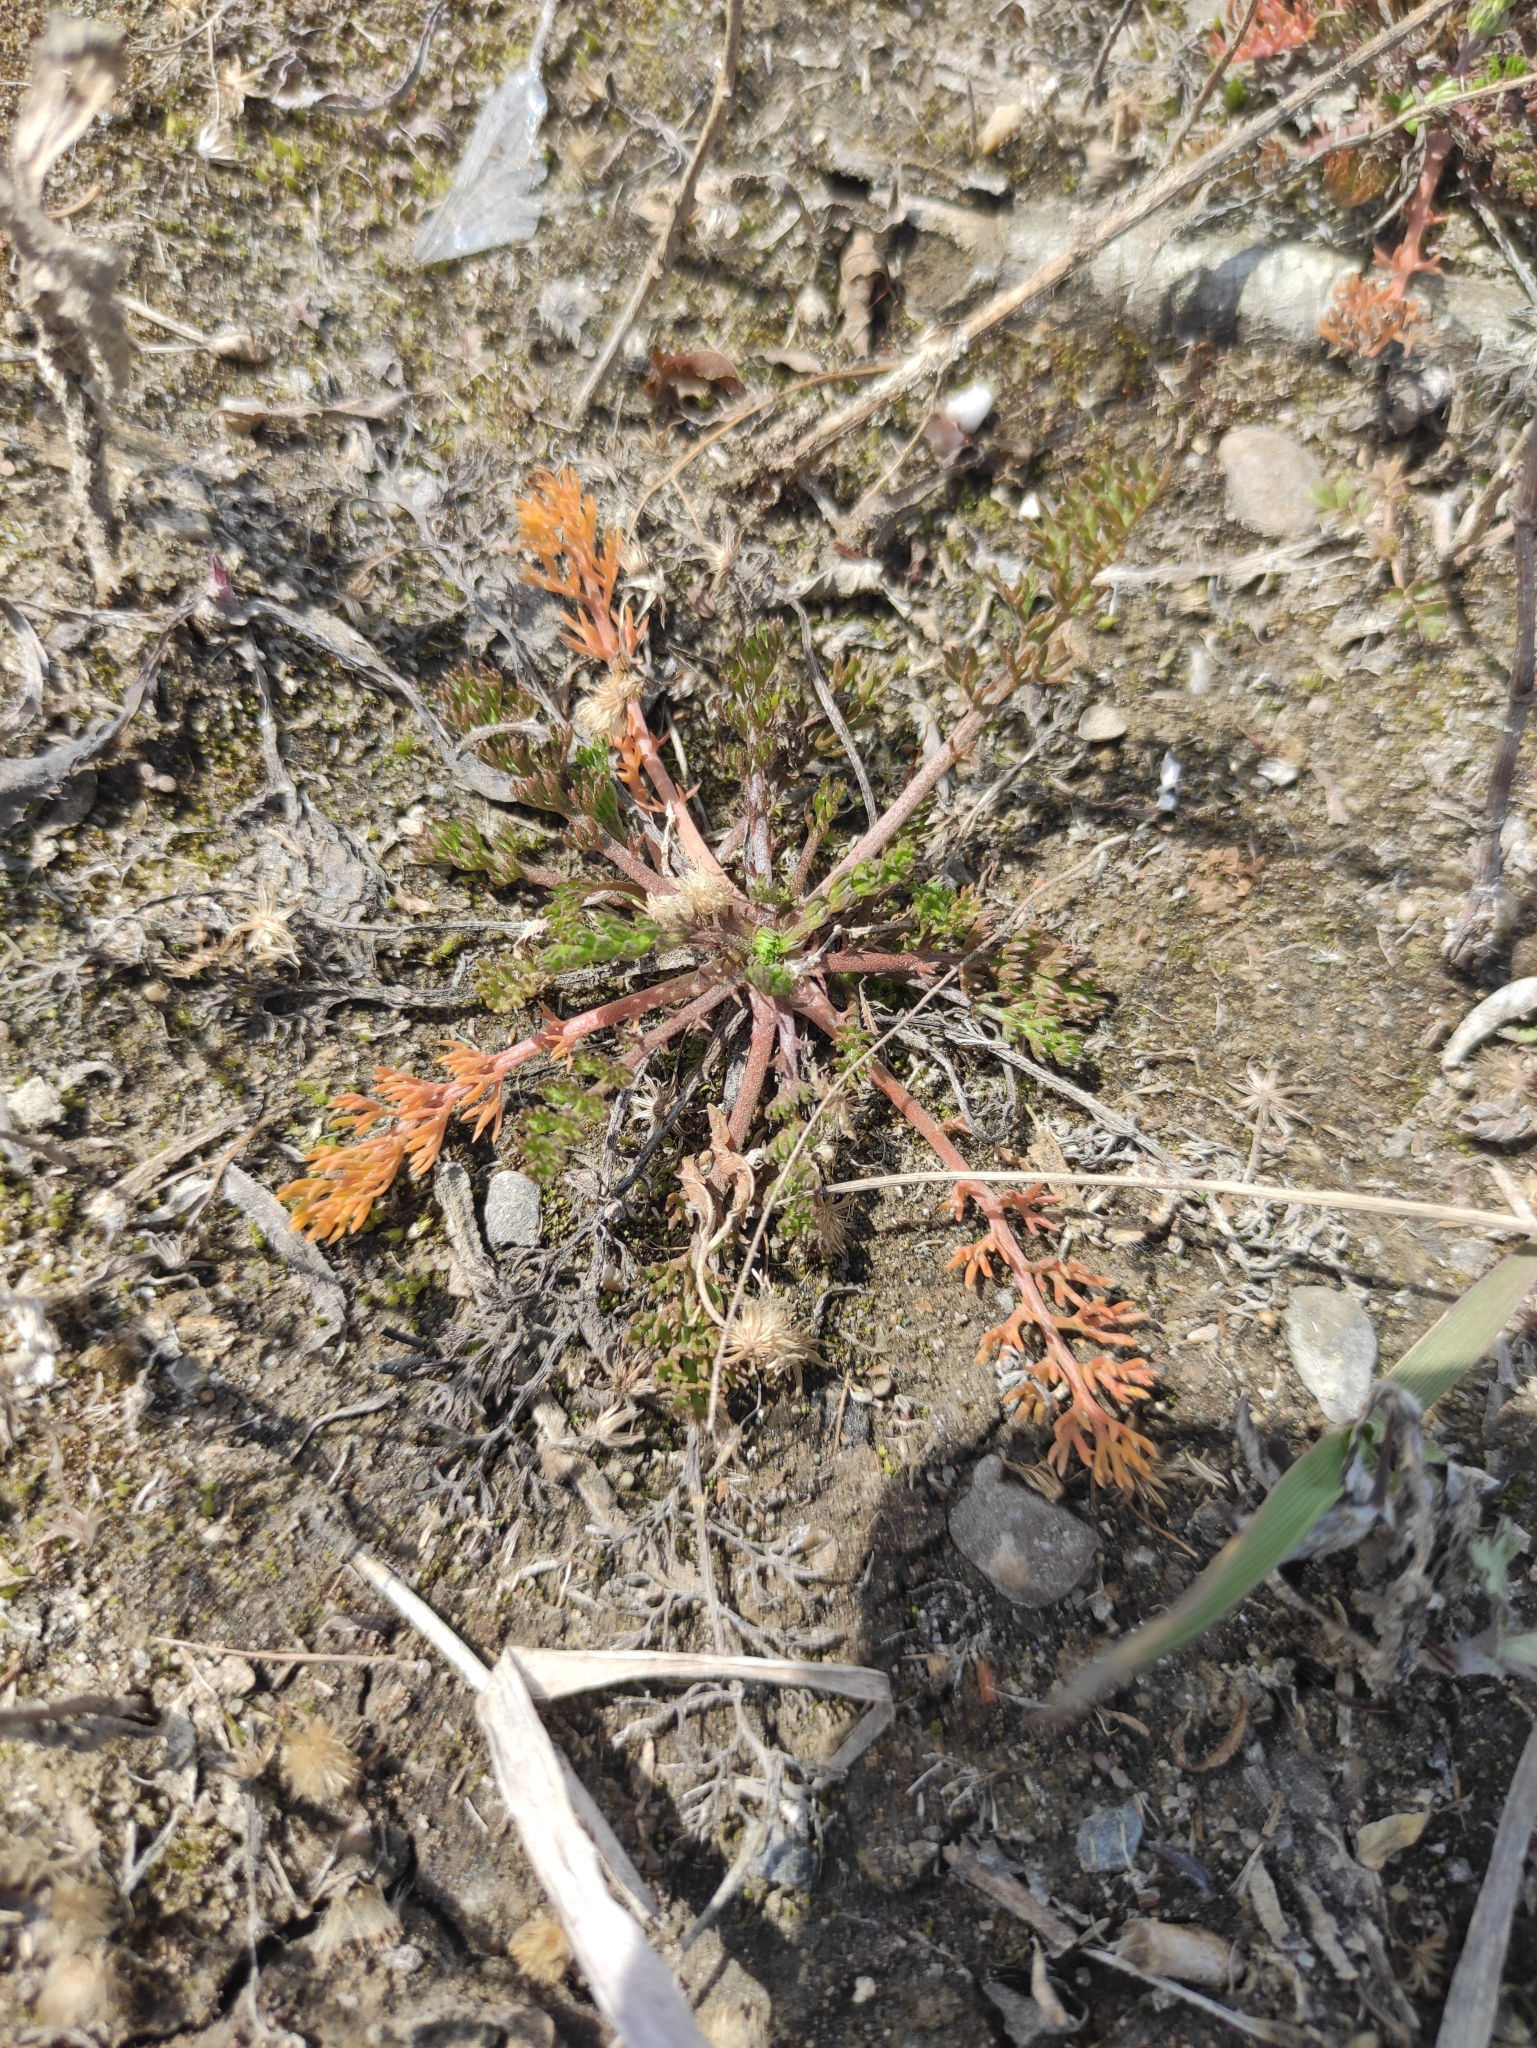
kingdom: Plantae
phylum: Tracheophyta
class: Magnoliopsida
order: Asterales
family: Asteraceae
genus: Tripleurospermum
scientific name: Tripleurospermum inodorum
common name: Scentless mayweed
